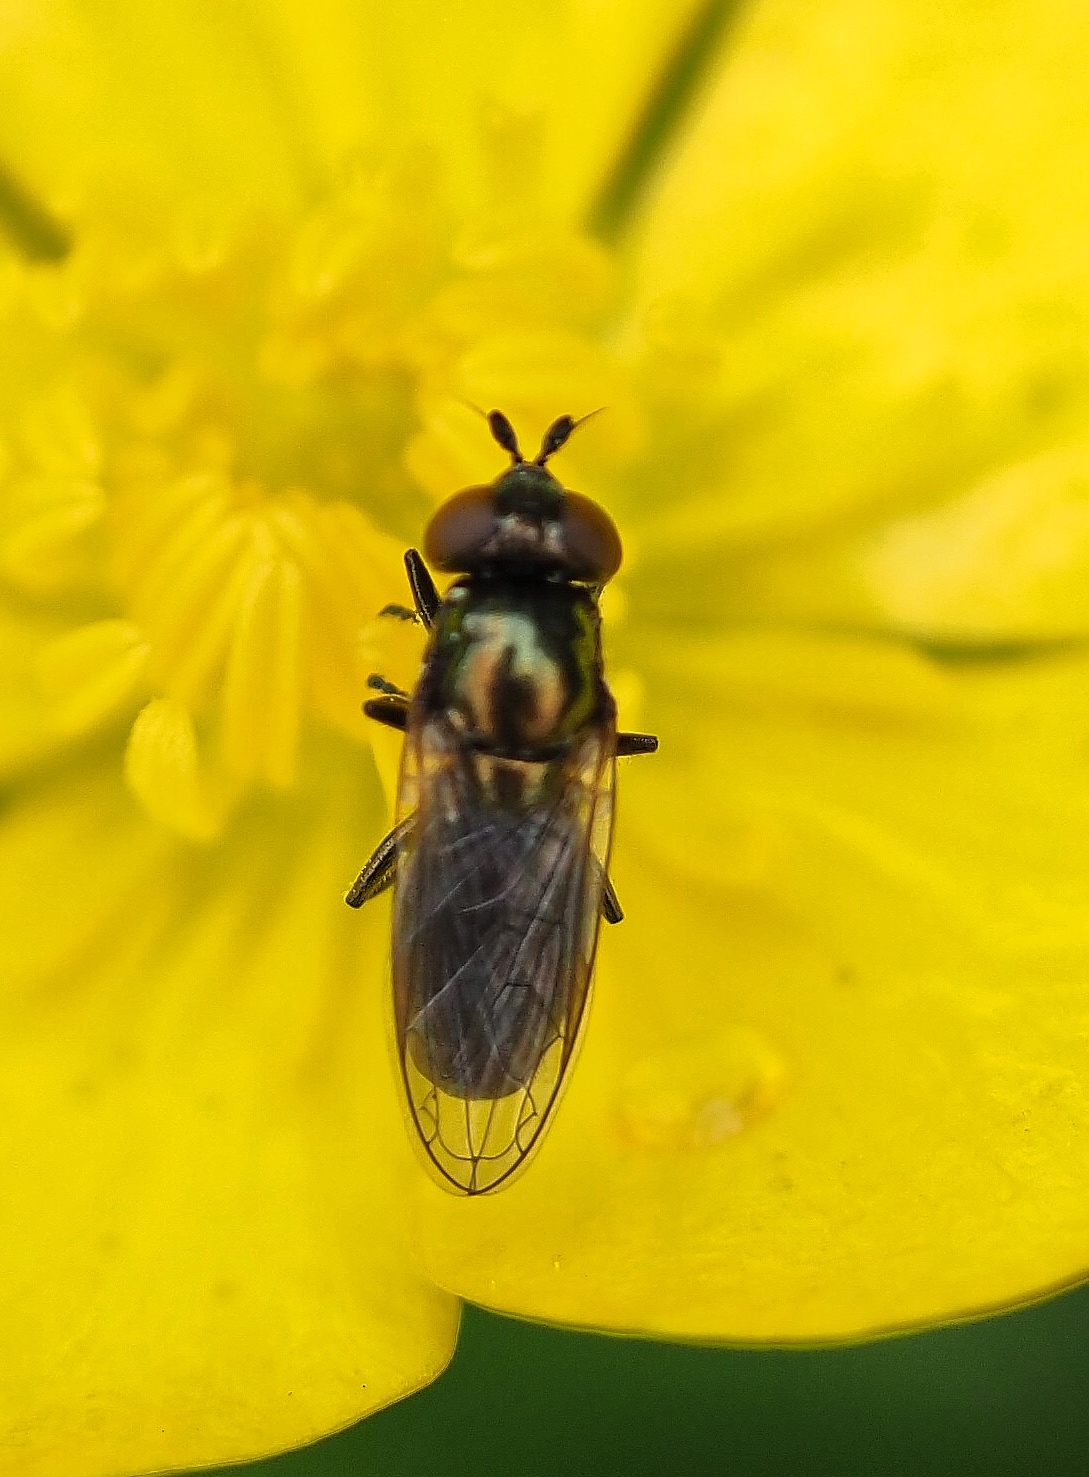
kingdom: Animalia
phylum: Arthropoda
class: Insecta
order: Diptera
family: Syrphidae
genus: Lejogaster
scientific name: Lejogaster metallina
